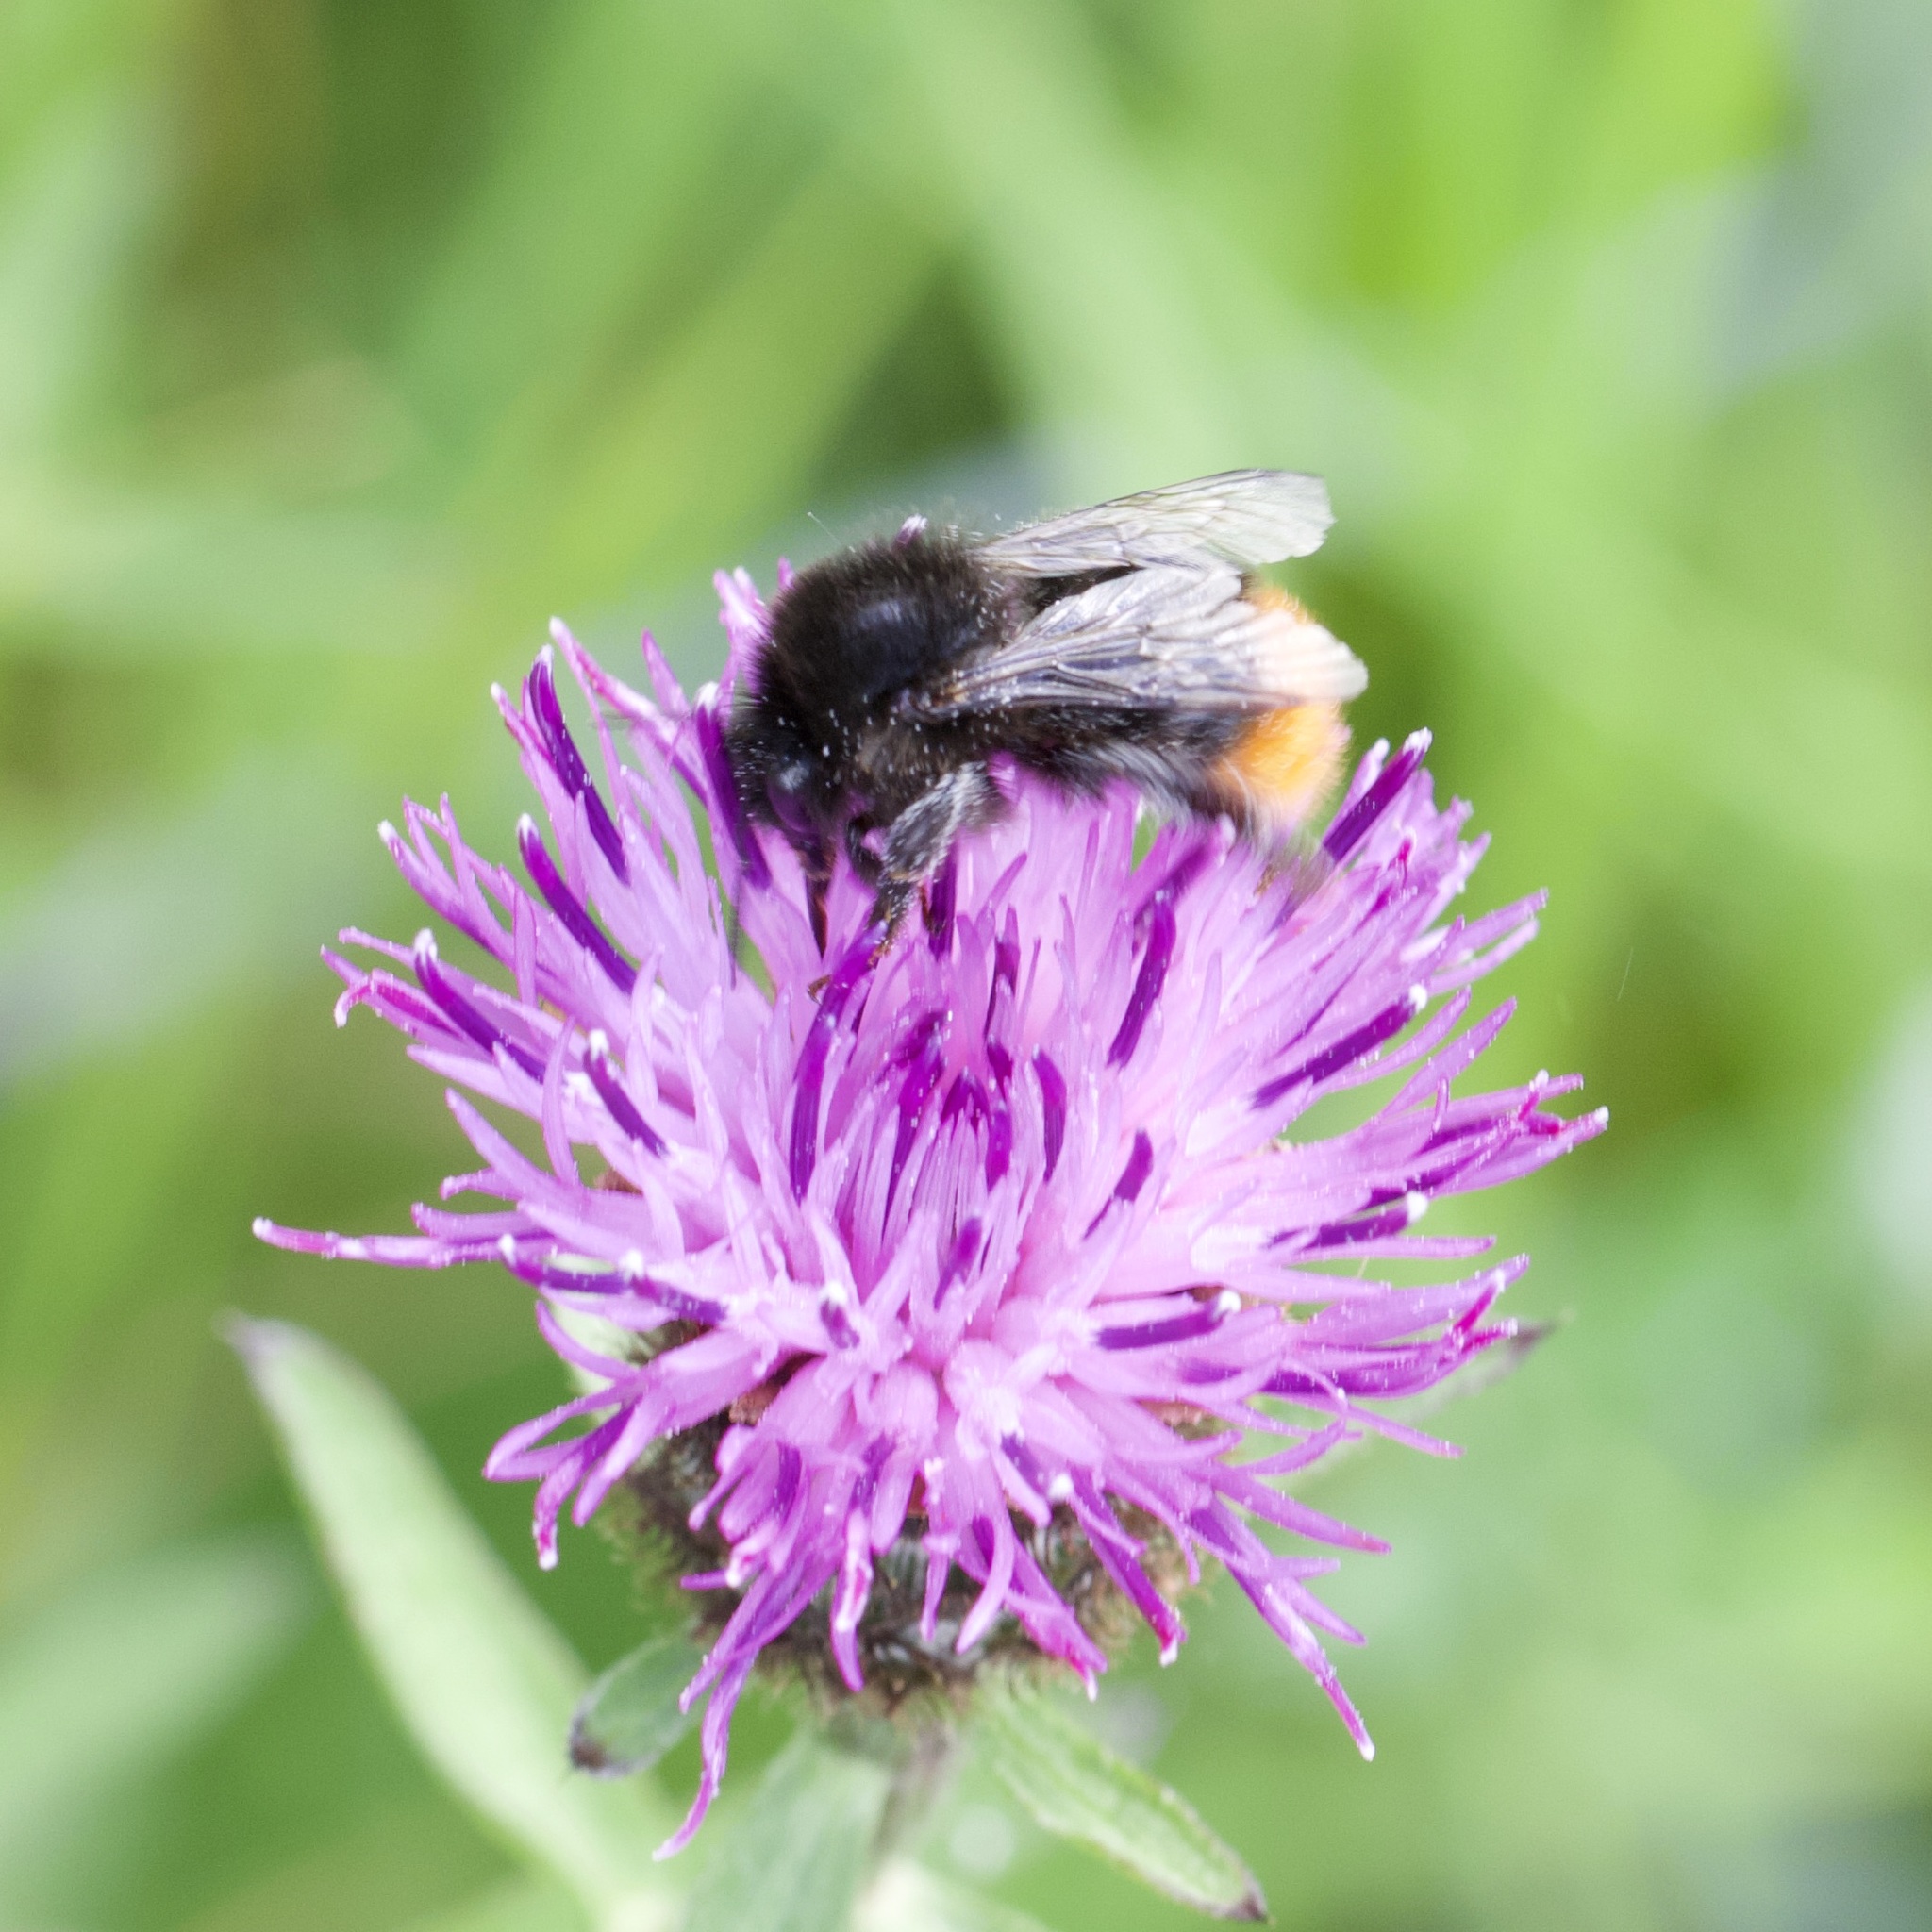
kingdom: Animalia
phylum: Arthropoda
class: Insecta
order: Hymenoptera
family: Apidae
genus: Bombus
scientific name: Bombus lapidarius
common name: Large red-tailed humble-bee
